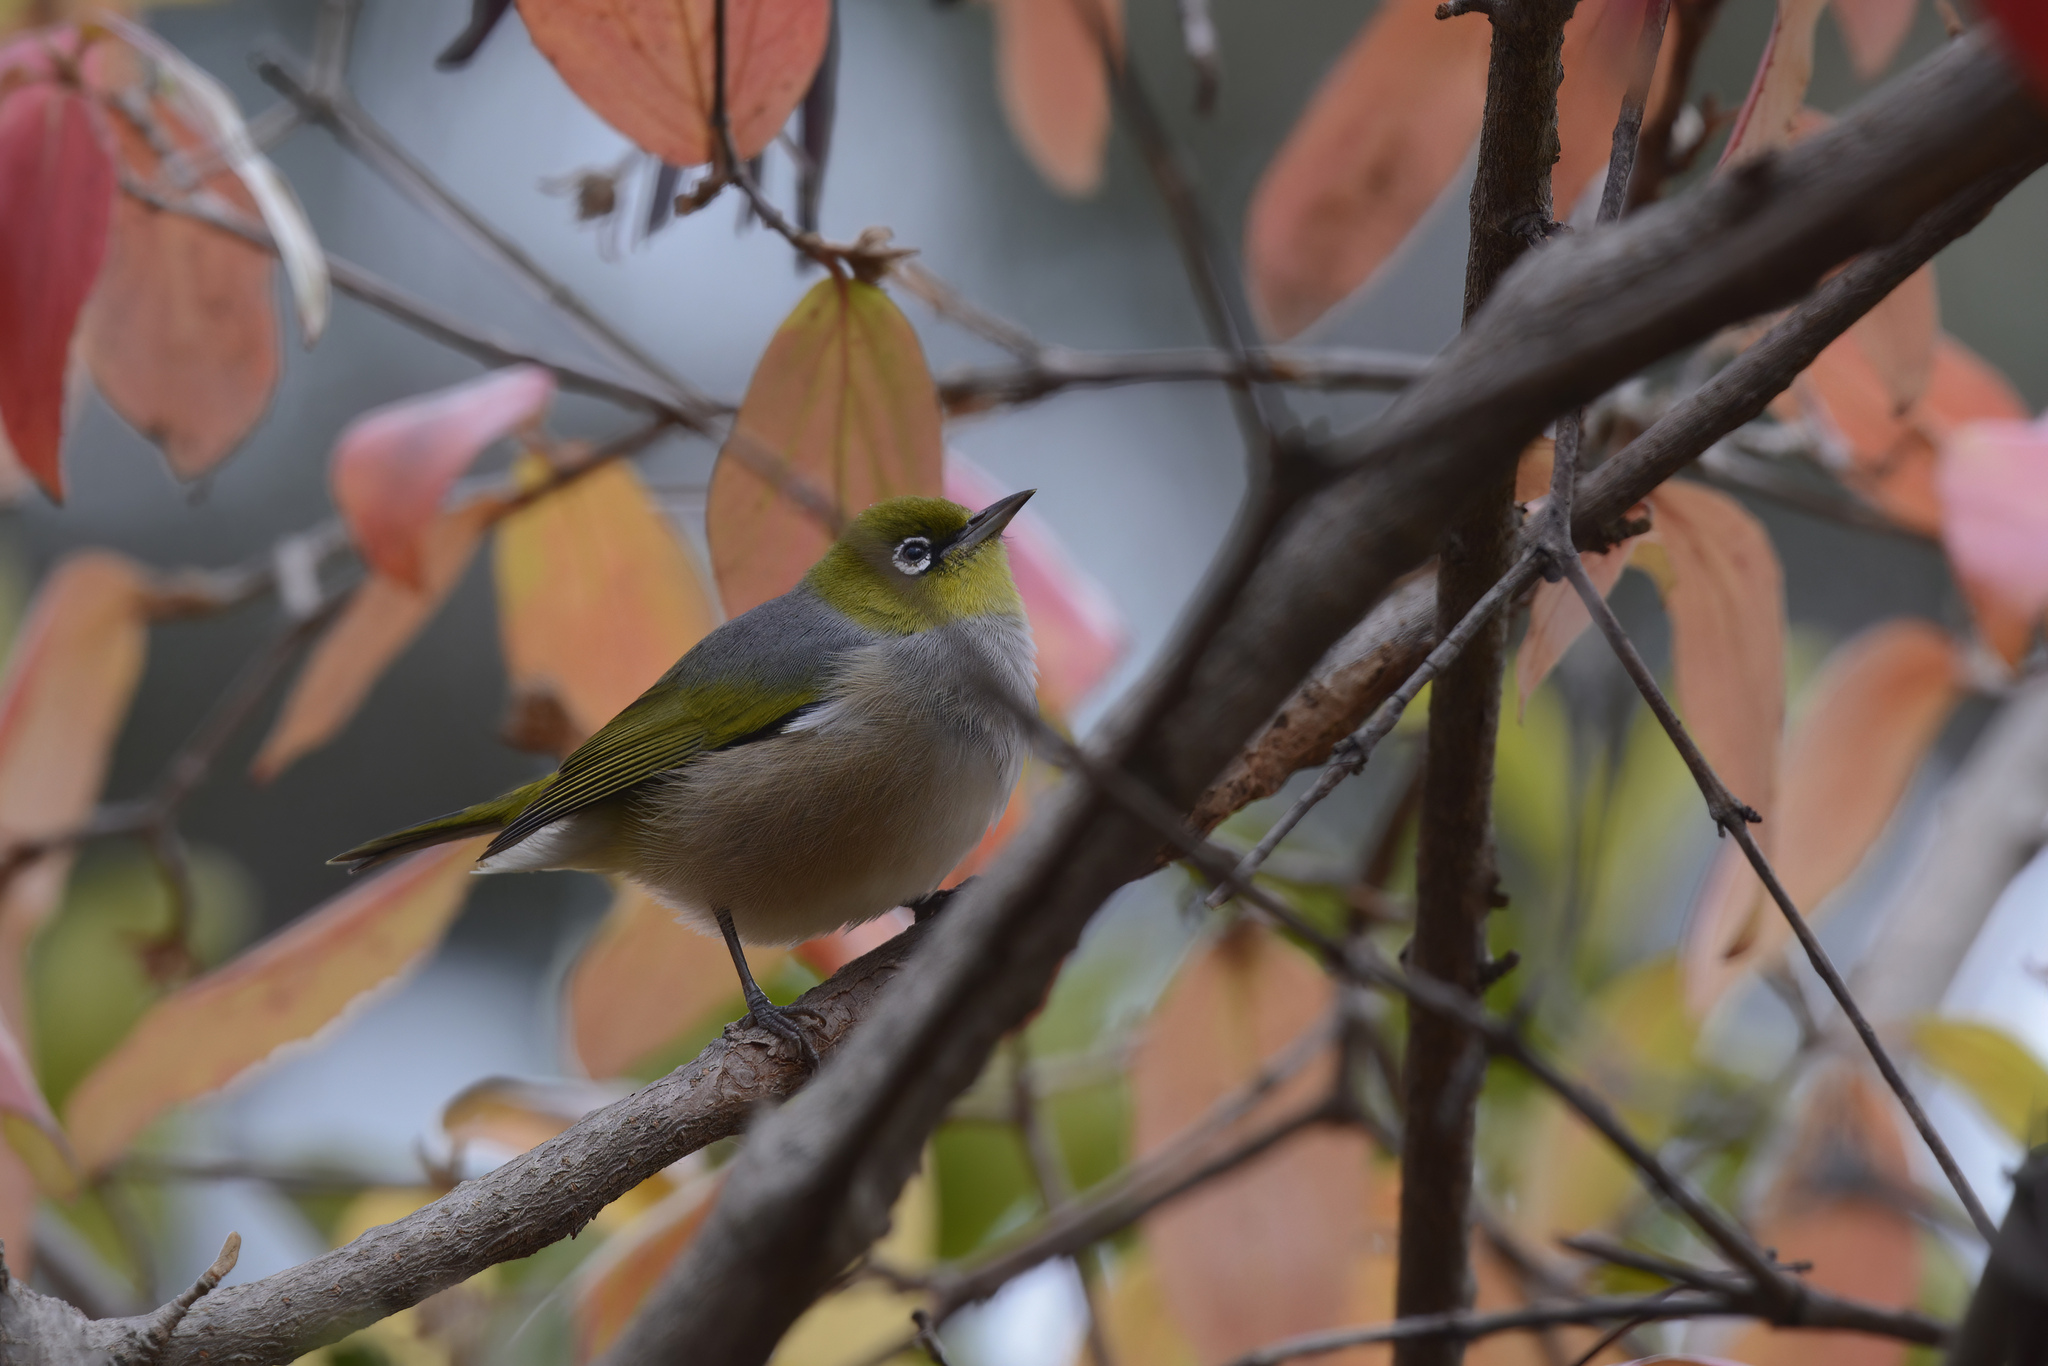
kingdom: Animalia
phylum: Chordata
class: Aves
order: Passeriformes
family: Zosteropidae
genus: Zosterops
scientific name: Zosterops lateralis
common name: Silvereye
